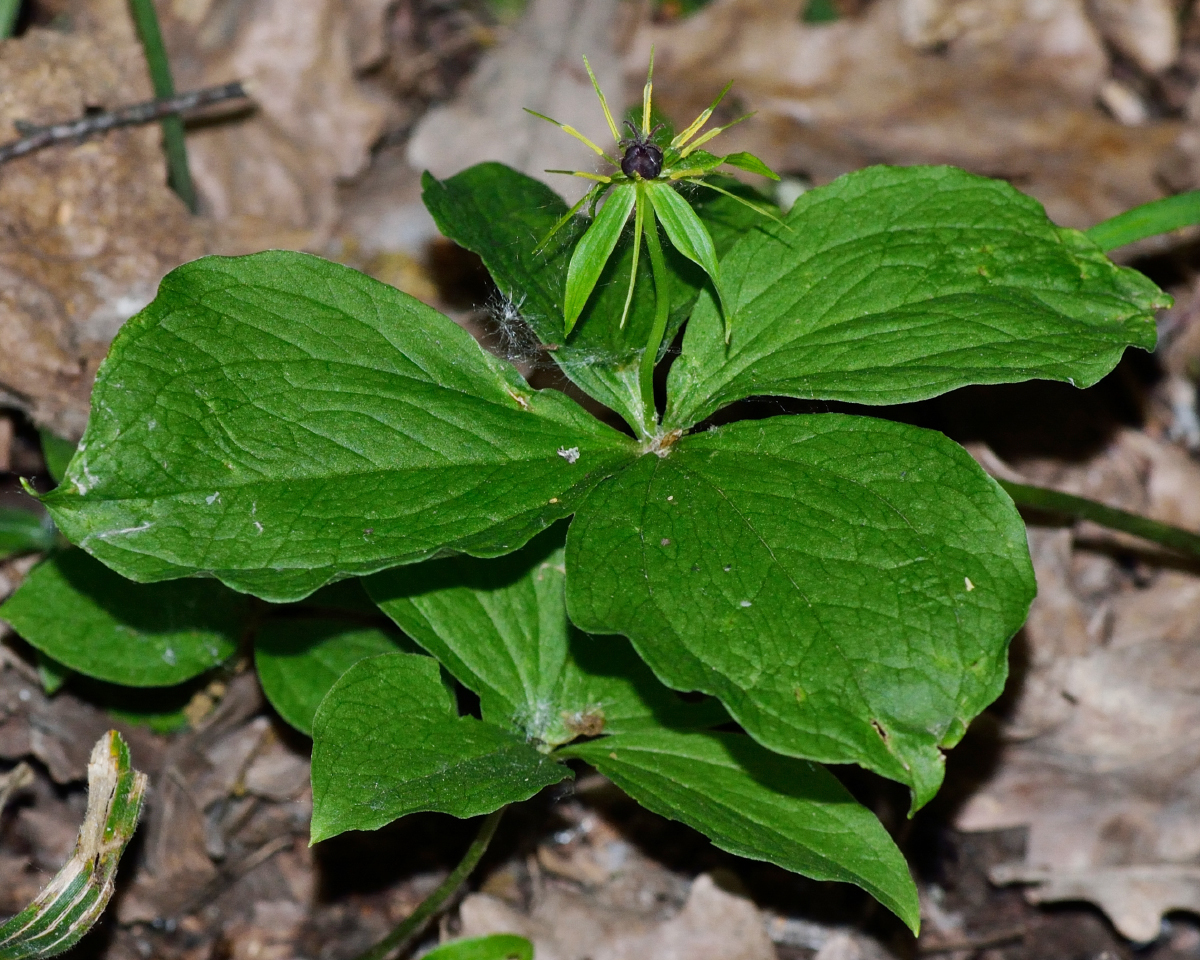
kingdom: Plantae
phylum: Tracheophyta
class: Liliopsida
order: Liliales
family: Melanthiaceae
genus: Paris
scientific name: Paris quadrifolia
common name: Herb-paris
